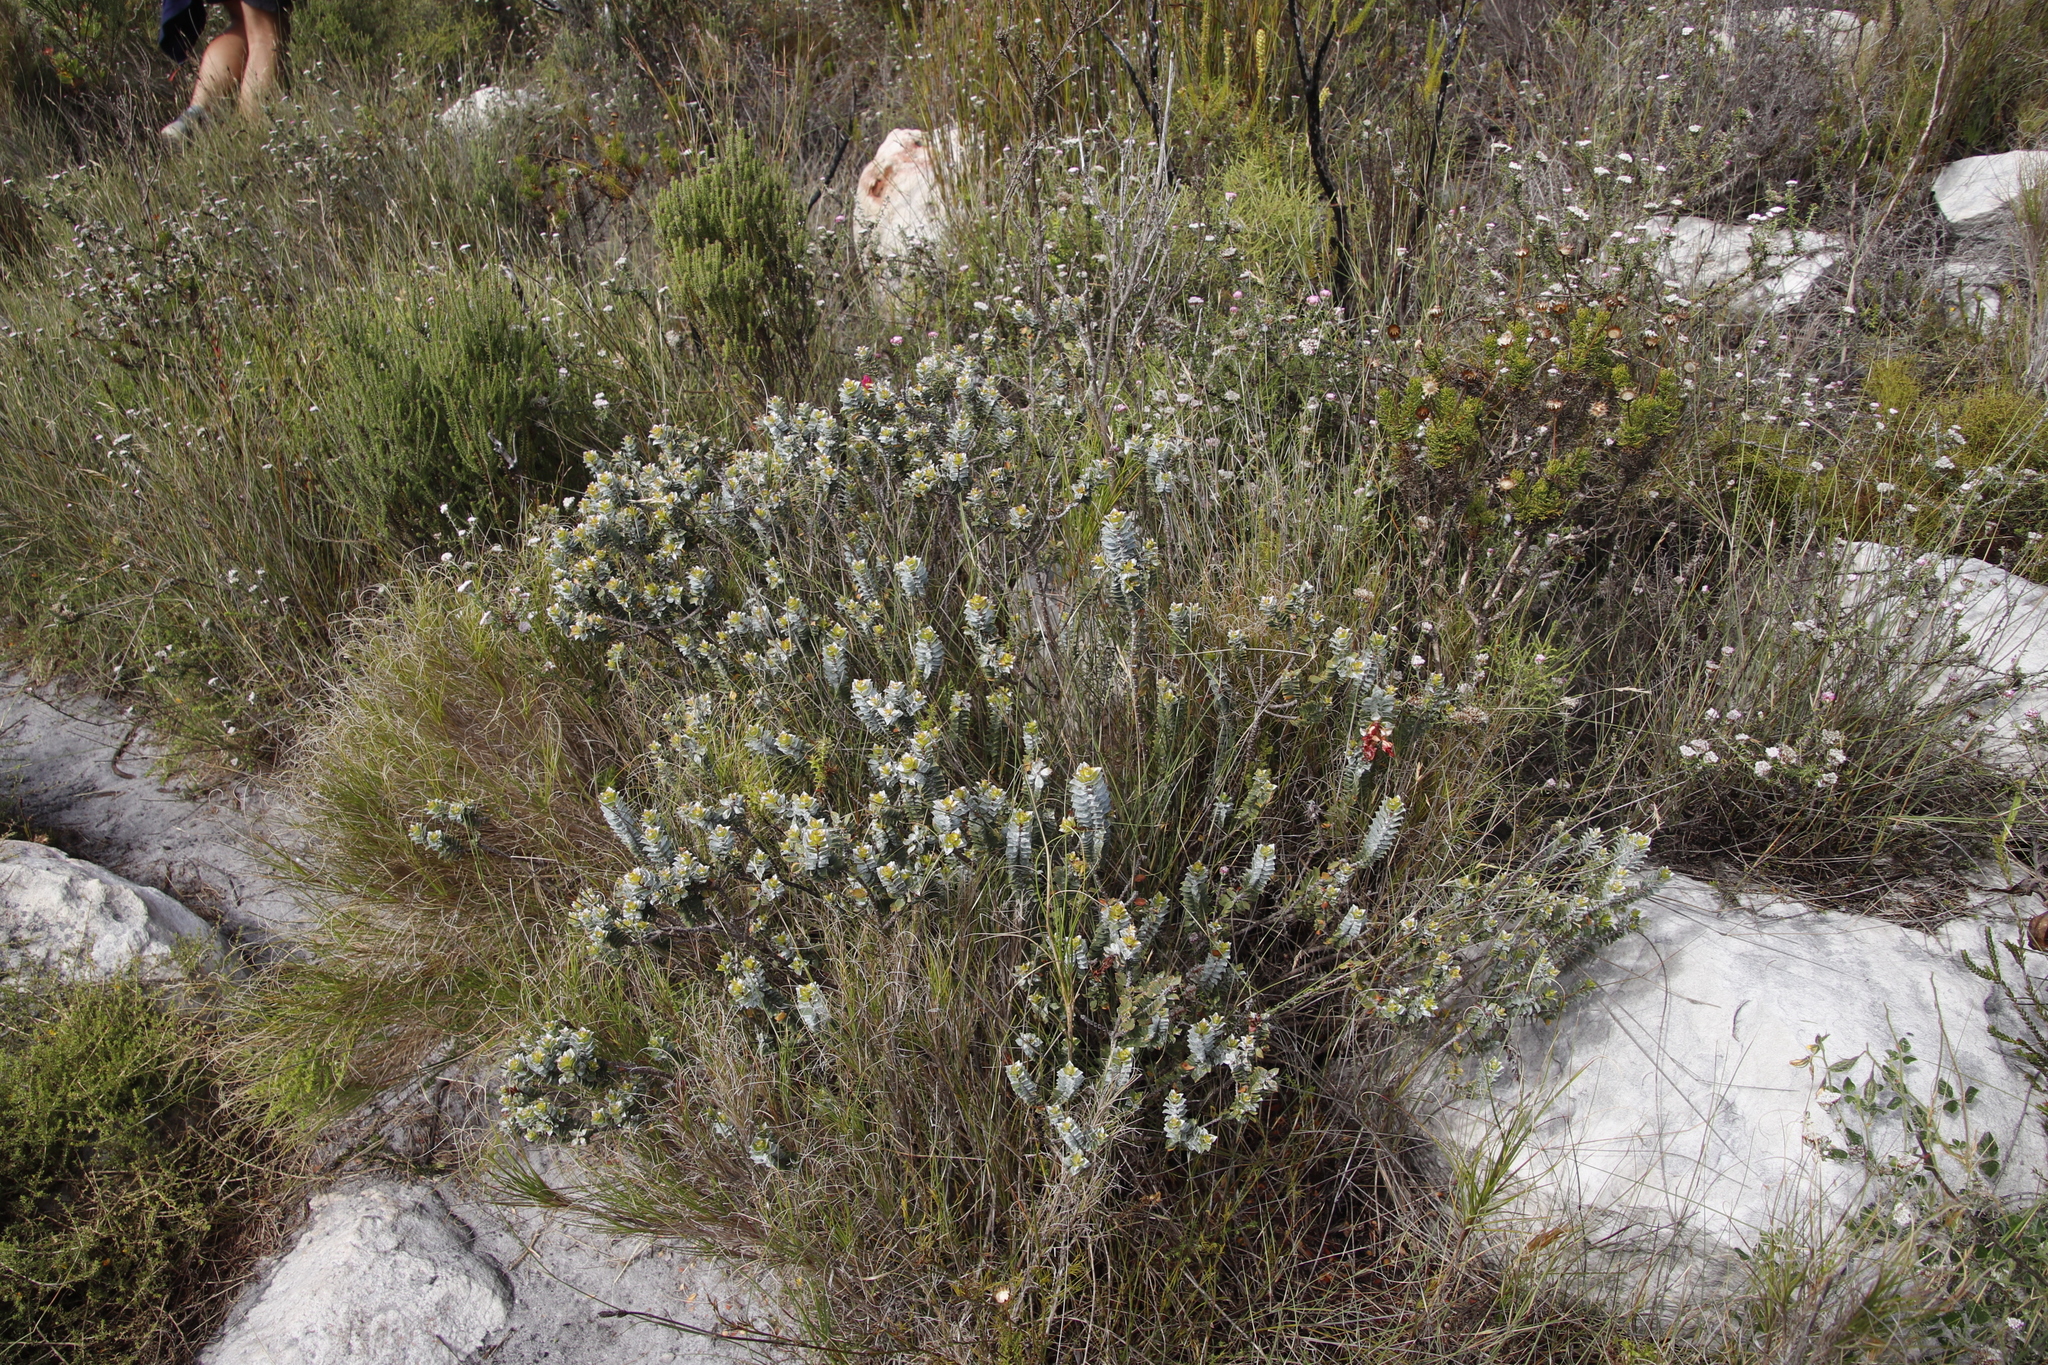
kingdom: Plantae
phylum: Tracheophyta
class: Magnoliopsida
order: Myrtales
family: Penaeaceae
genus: Saltera
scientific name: Saltera sarcocolla
